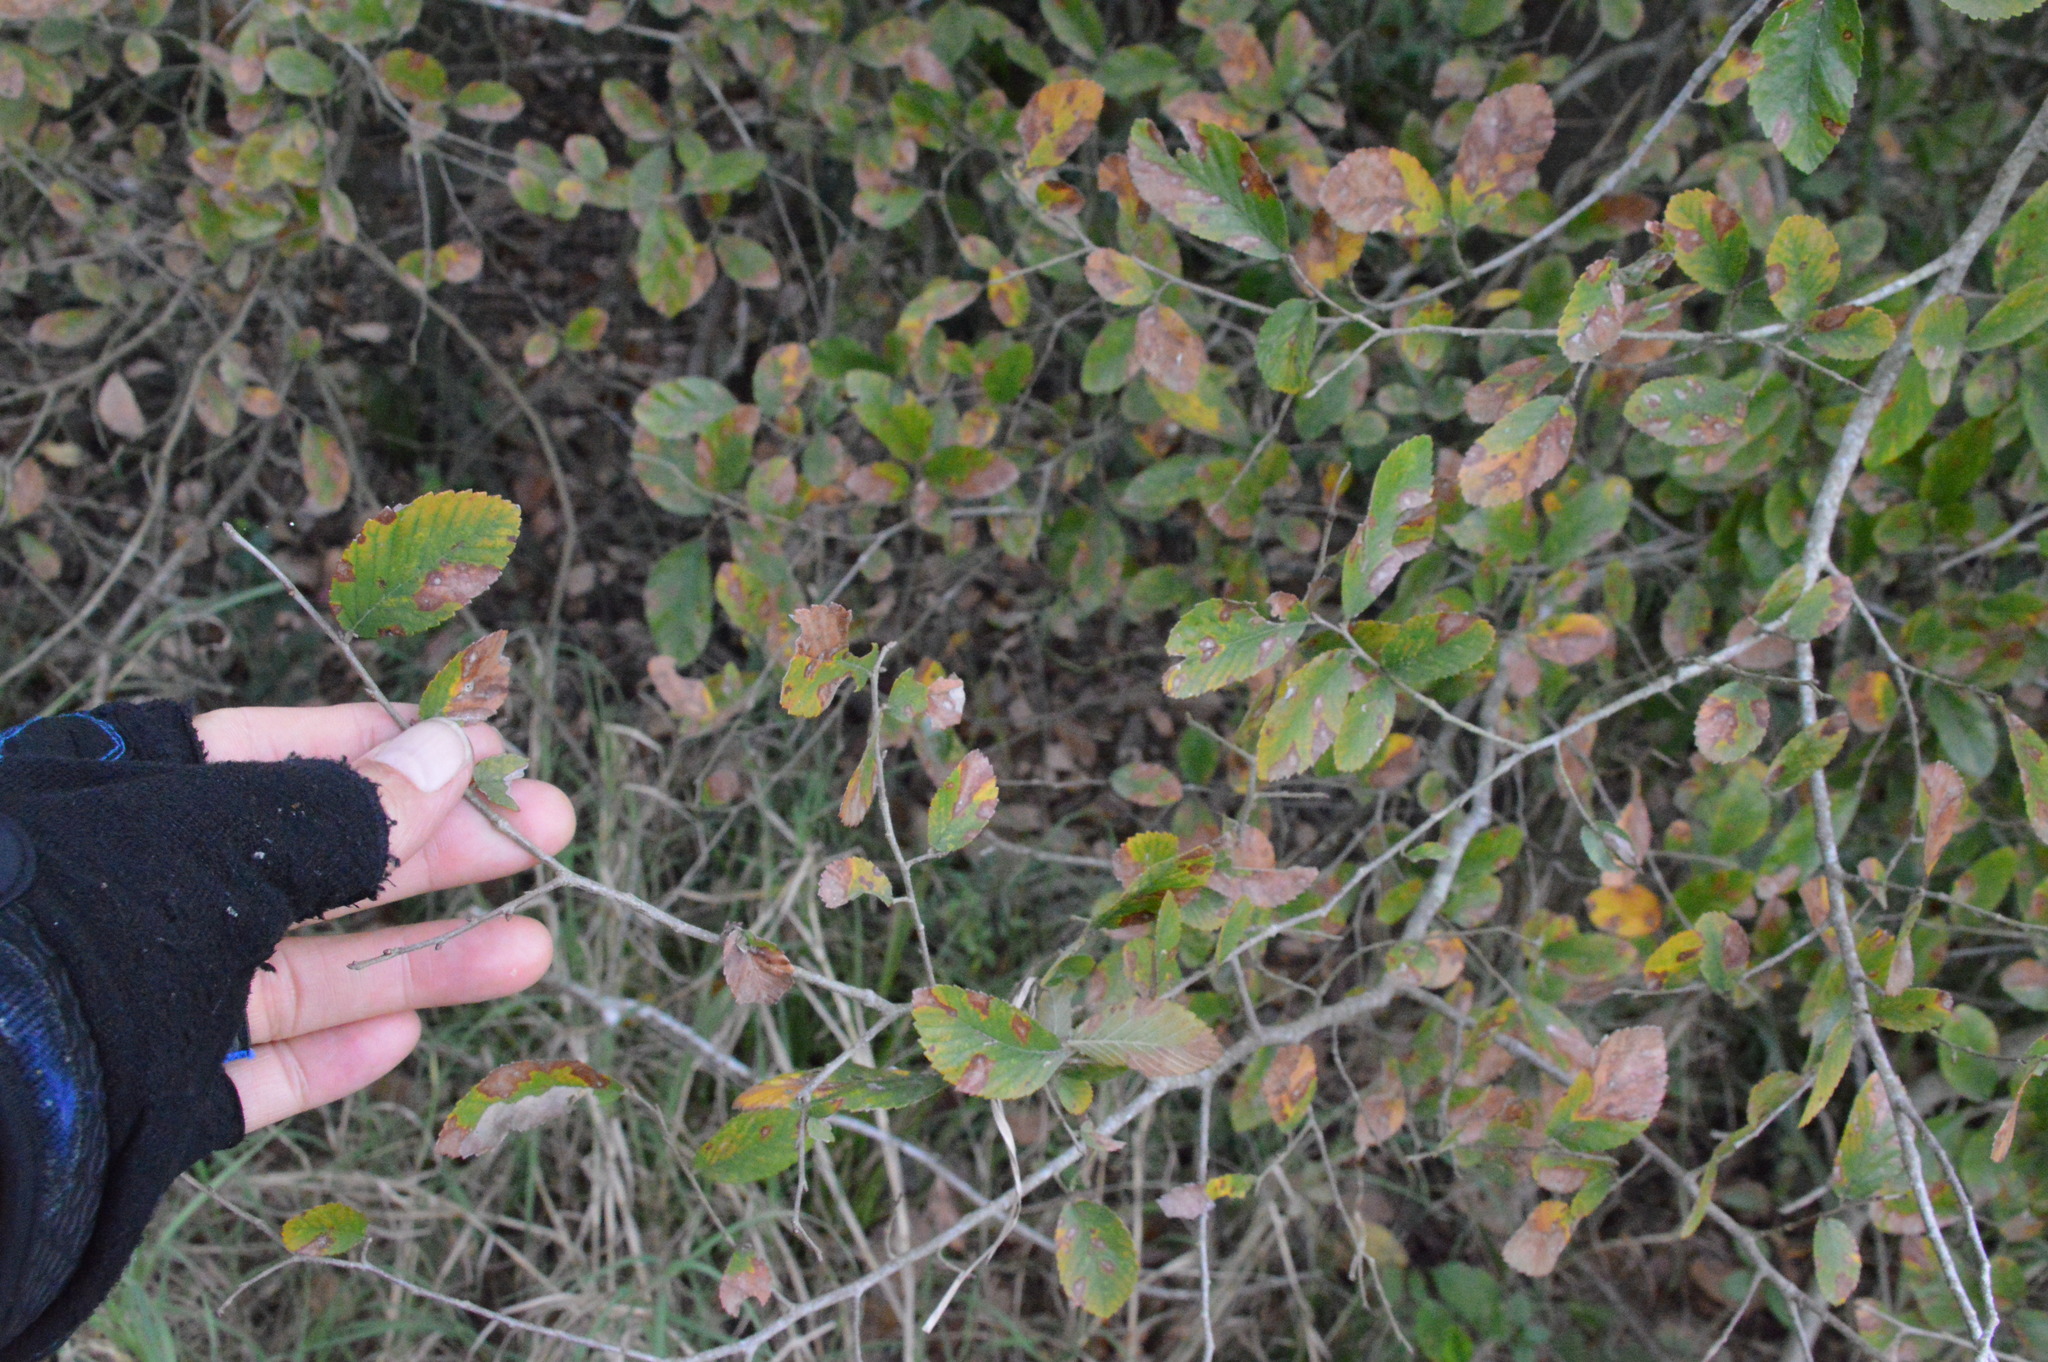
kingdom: Plantae
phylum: Tracheophyta
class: Magnoliopsida
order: Rosales
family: Ulmaceae
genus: Ulmus
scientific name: Ulmus crassifolia
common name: Basket elm
